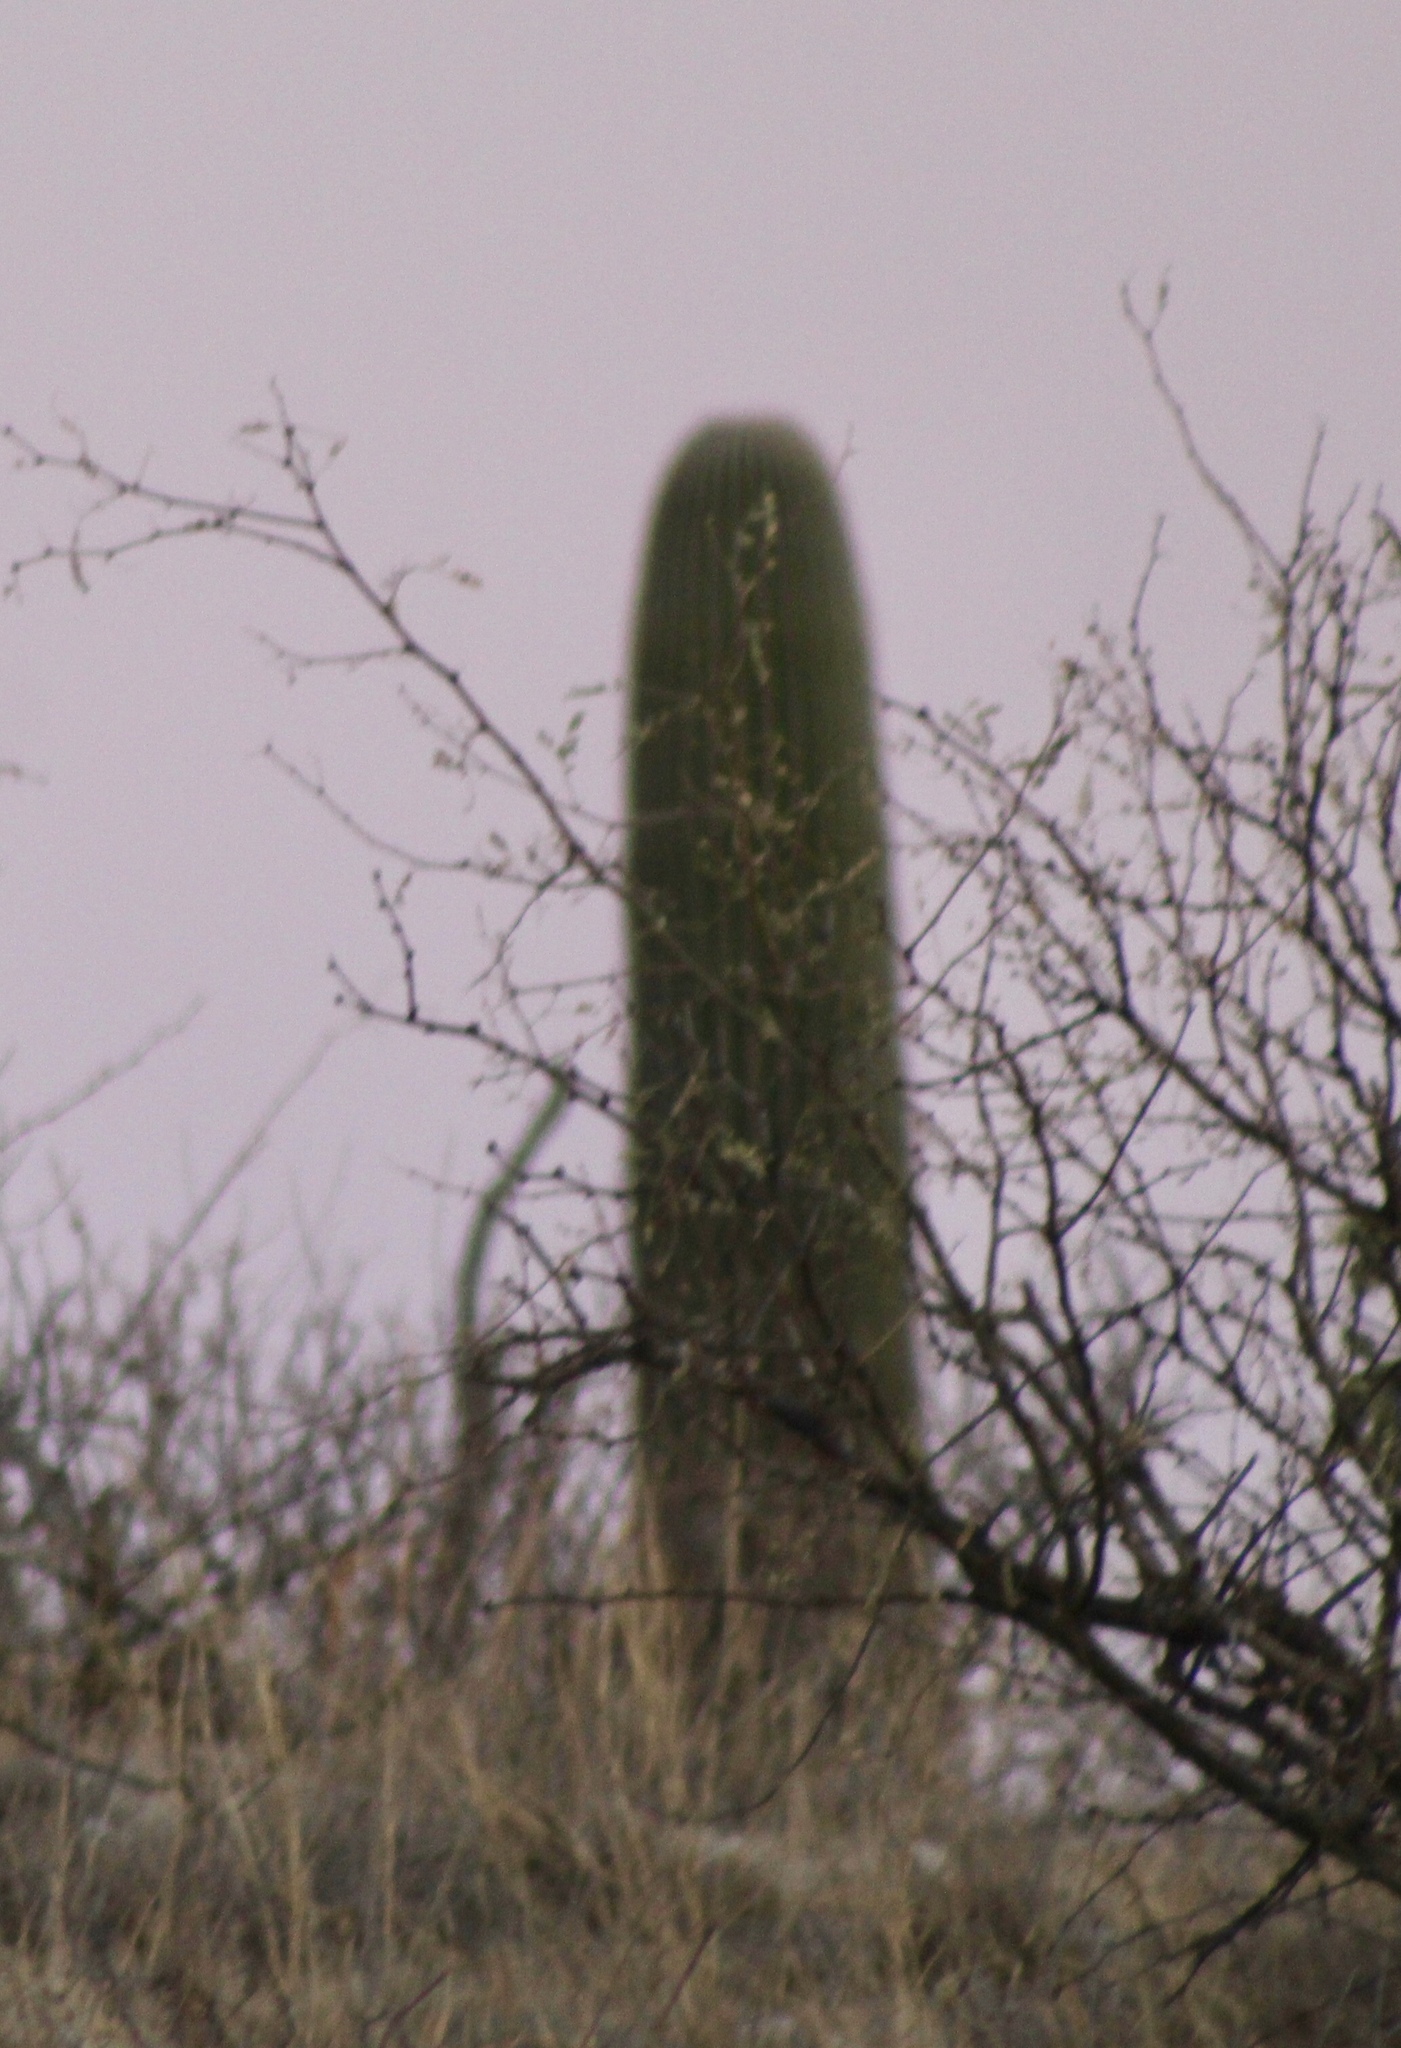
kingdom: Plantae
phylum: Tracheophyta
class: Magnoliopsida
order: Caryophyllales
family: Cactaceae
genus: Carnegiea
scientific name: Carnegiea gigantea
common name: Saguaro
